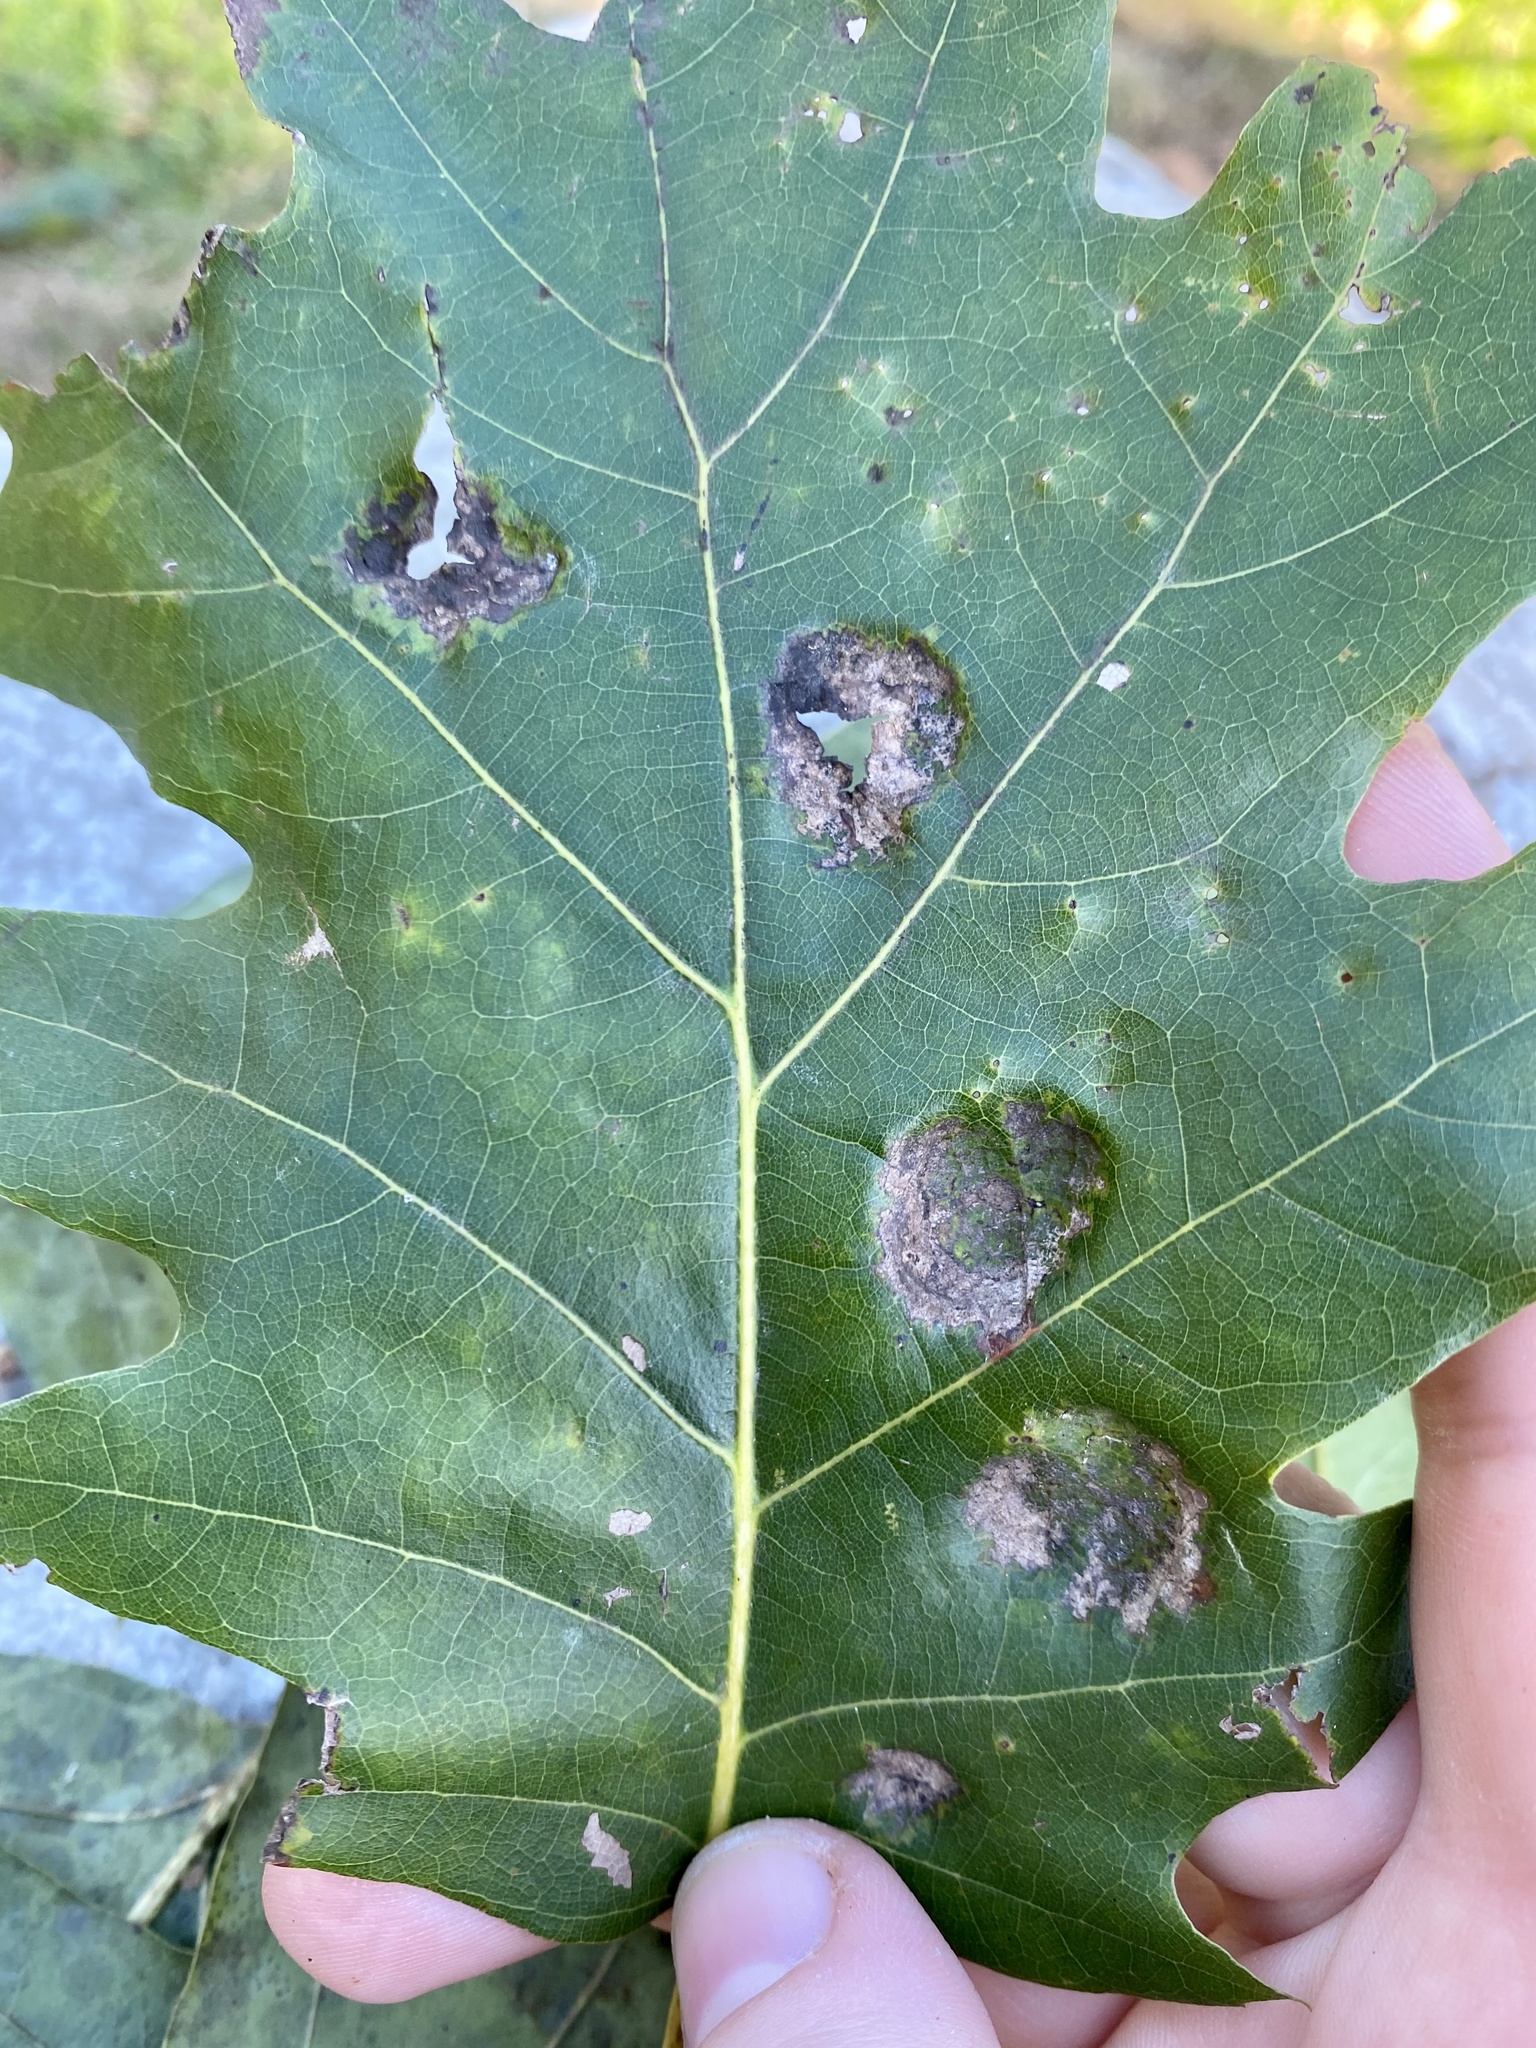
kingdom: Fungi
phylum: Ascomycota
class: Taphrinomycetes
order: Taphrinales
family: Taphrinaceae
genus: Taphrina
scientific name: Taphrina caerulescens
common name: Oak leaf blister
